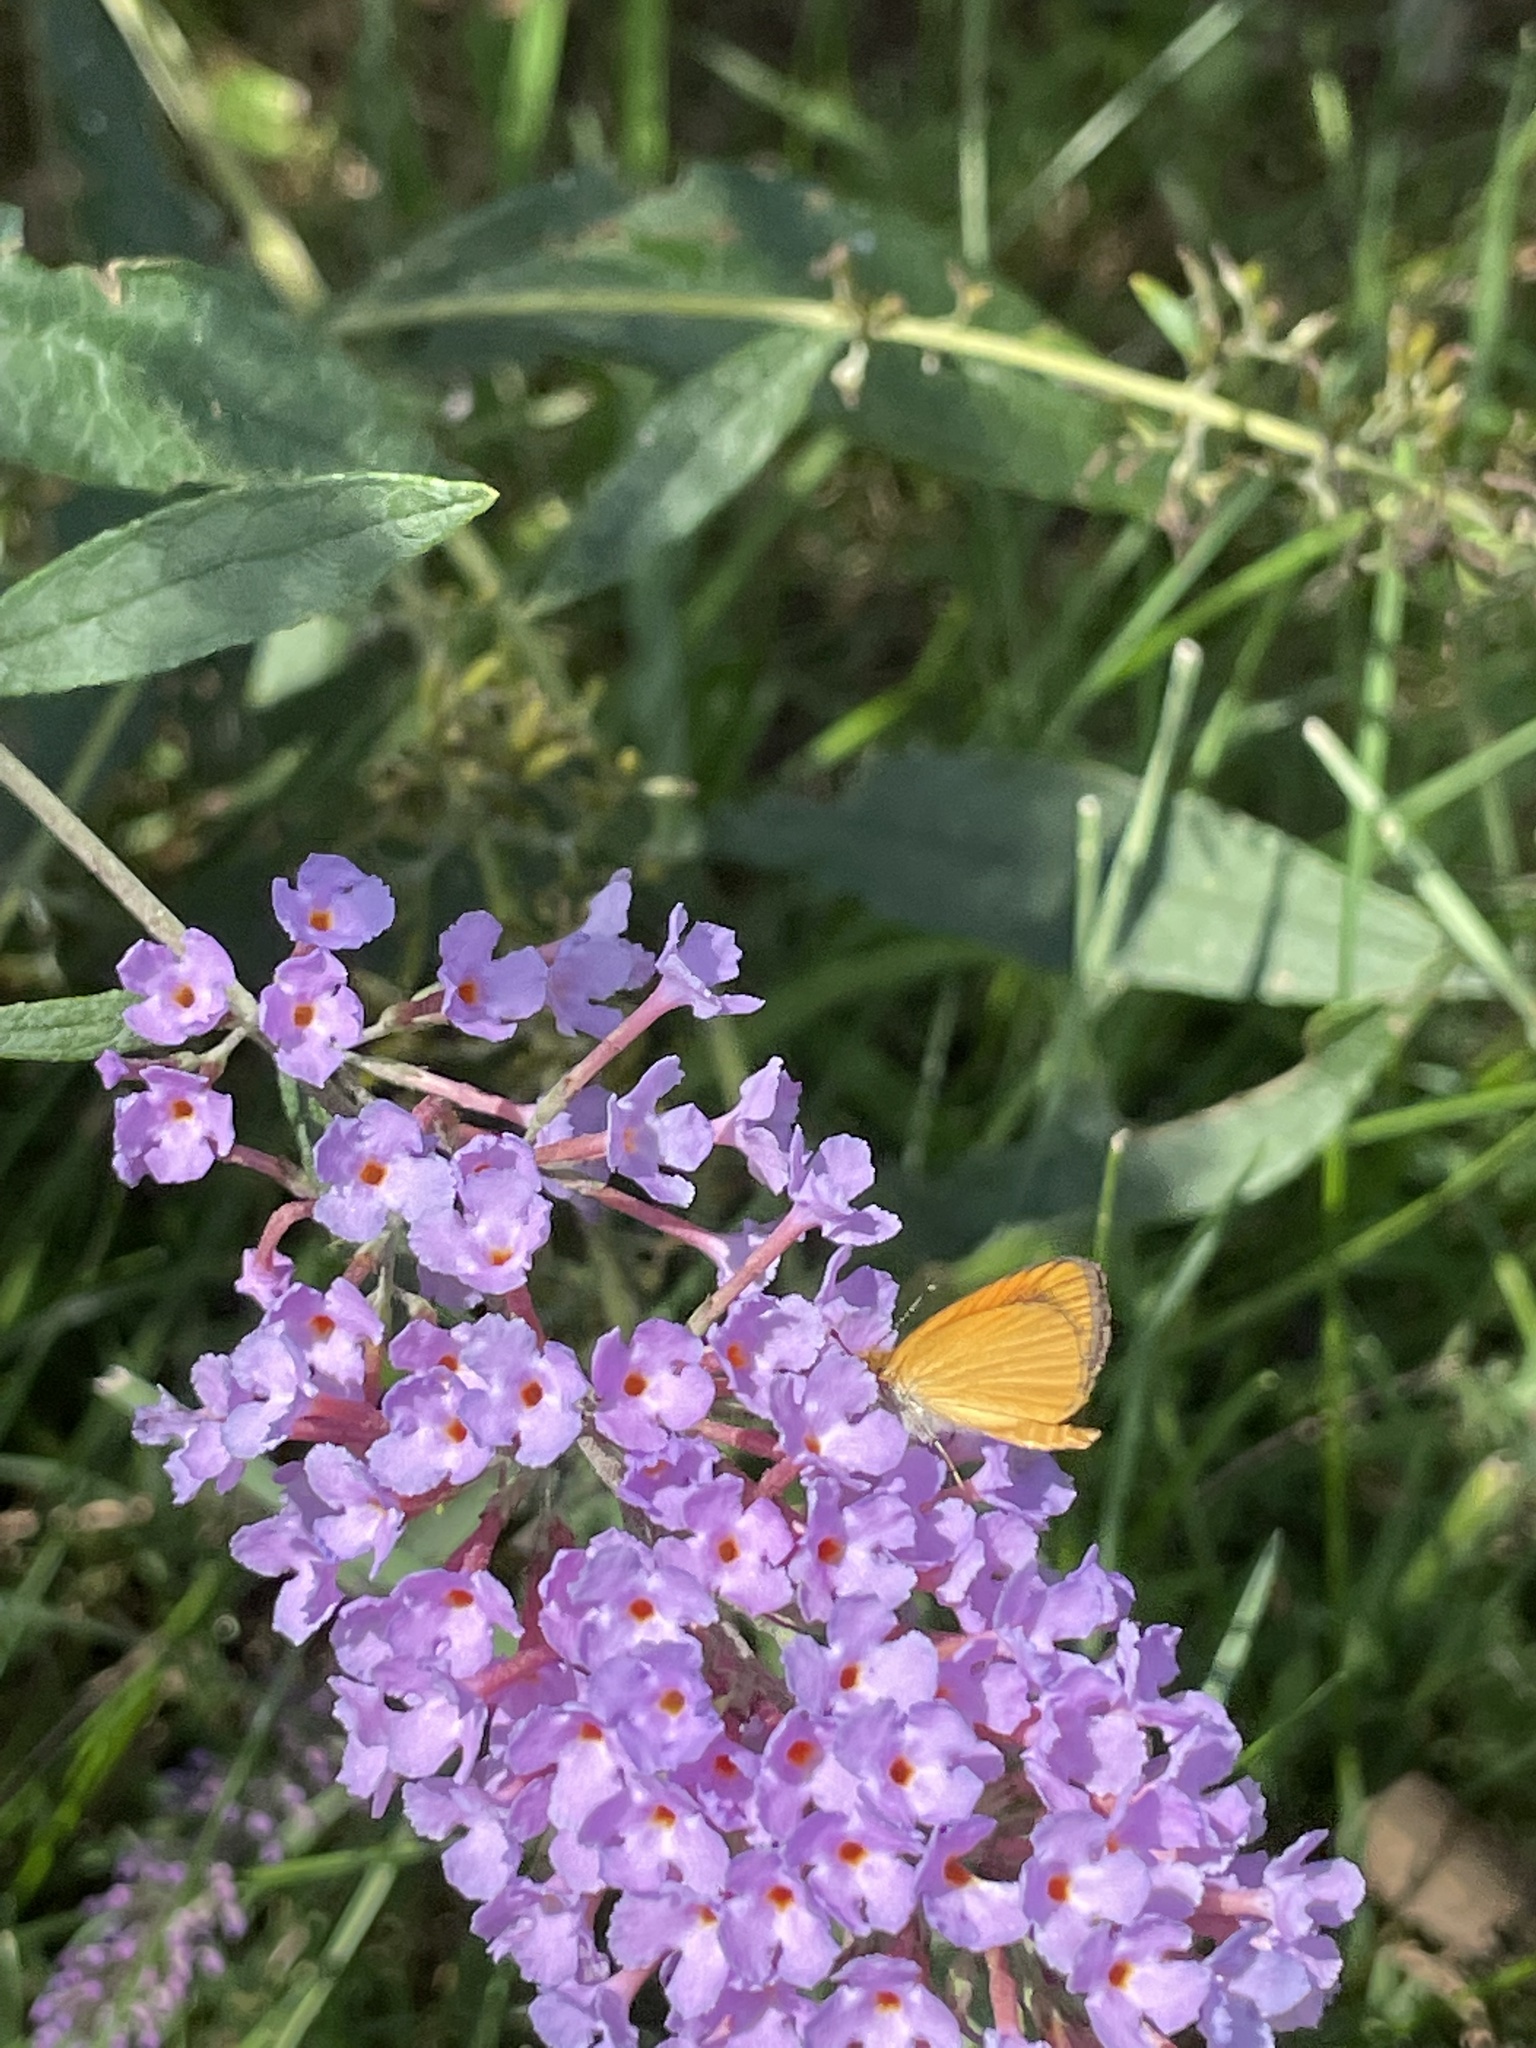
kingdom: Animalia
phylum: Arthropoda
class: Insecta
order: Lepidoptera
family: Hesperiidae
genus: Ancyloxypha
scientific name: Ancyloxypha numitor
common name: Least skipper
